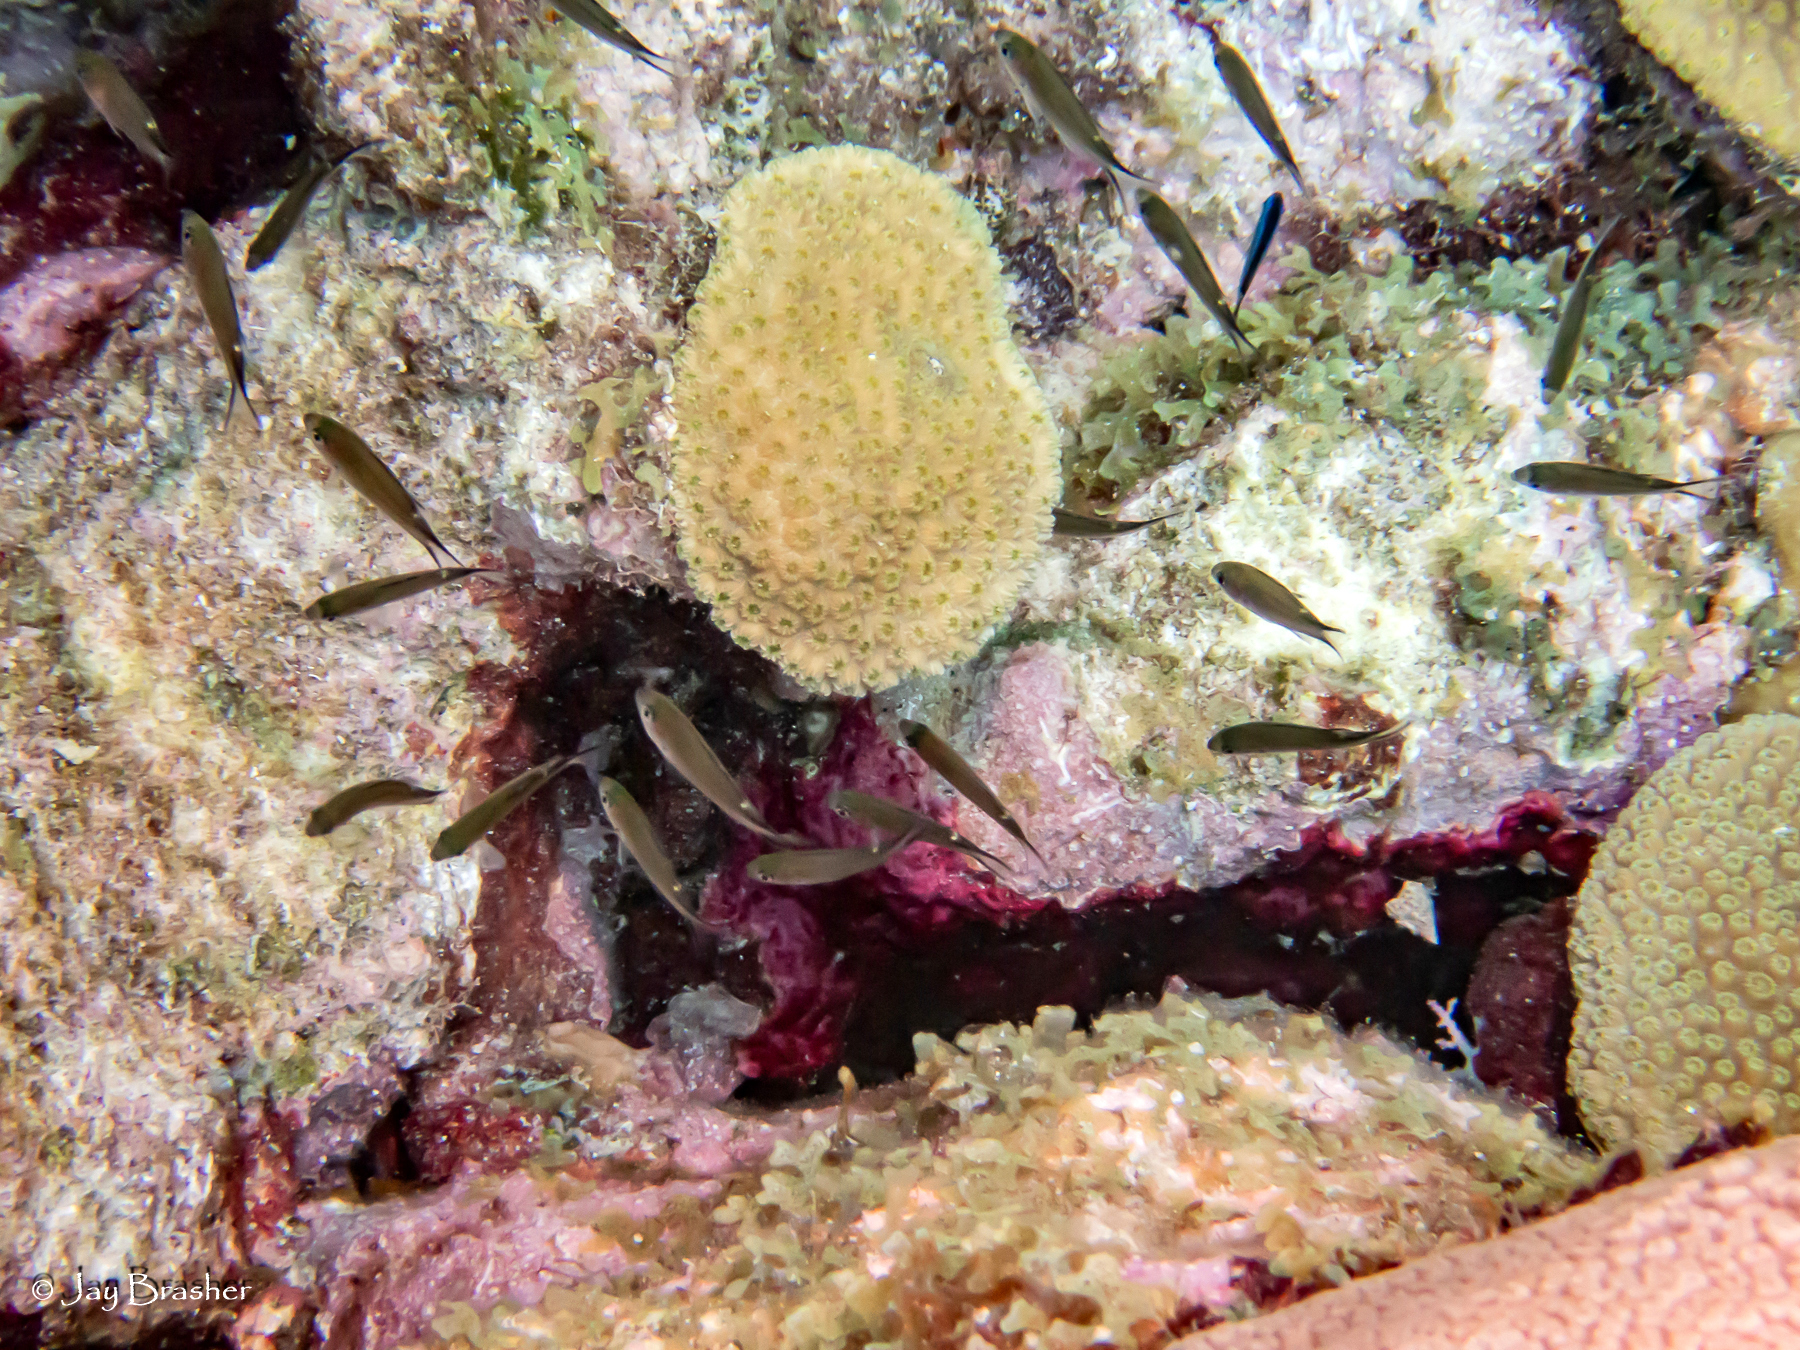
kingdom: Animalia
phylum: Chordata
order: Perciformes
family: Pomacentridae
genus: Chromis
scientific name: Chromis multilineata
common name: Brown chromis
